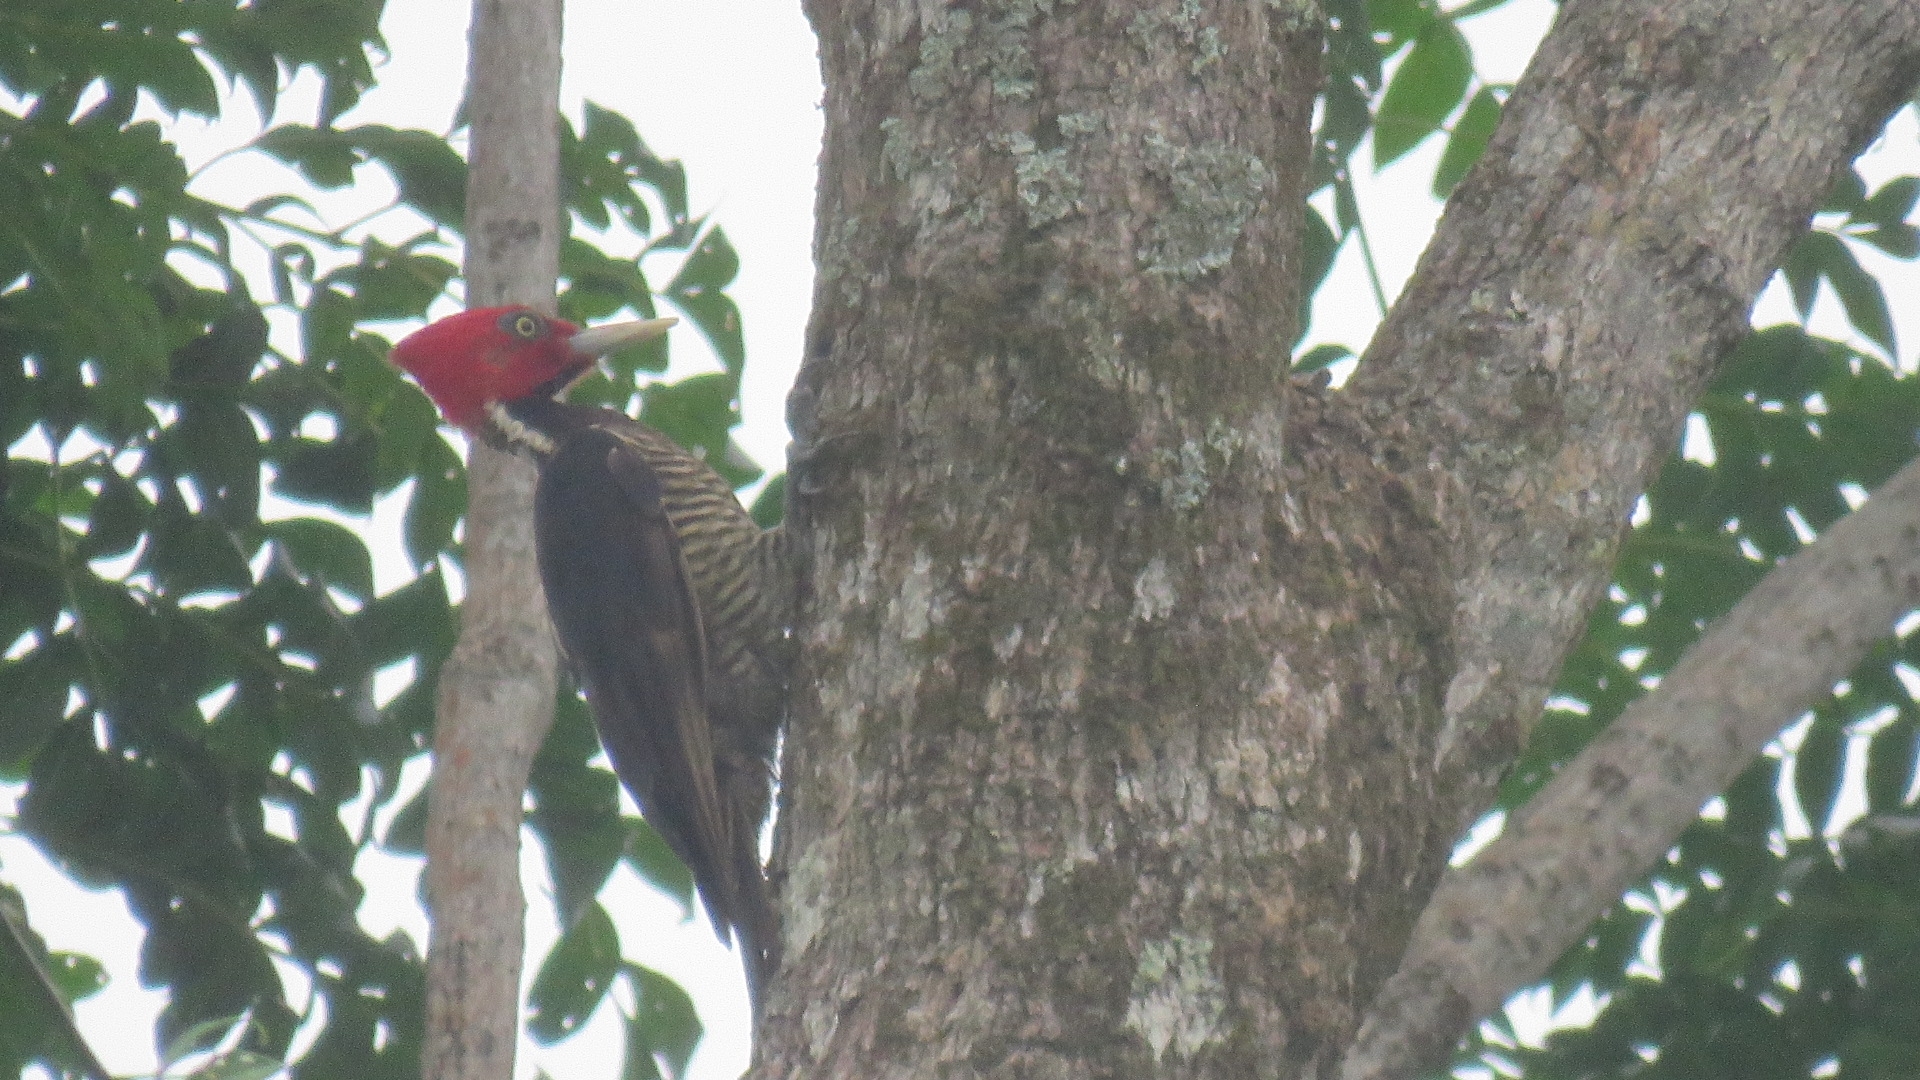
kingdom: Animalia
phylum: Chordata
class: Aves
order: Piciformes
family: Picidae
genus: Campephilus
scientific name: Campephilus guatemalensis
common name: Pale-billed woodpecker
